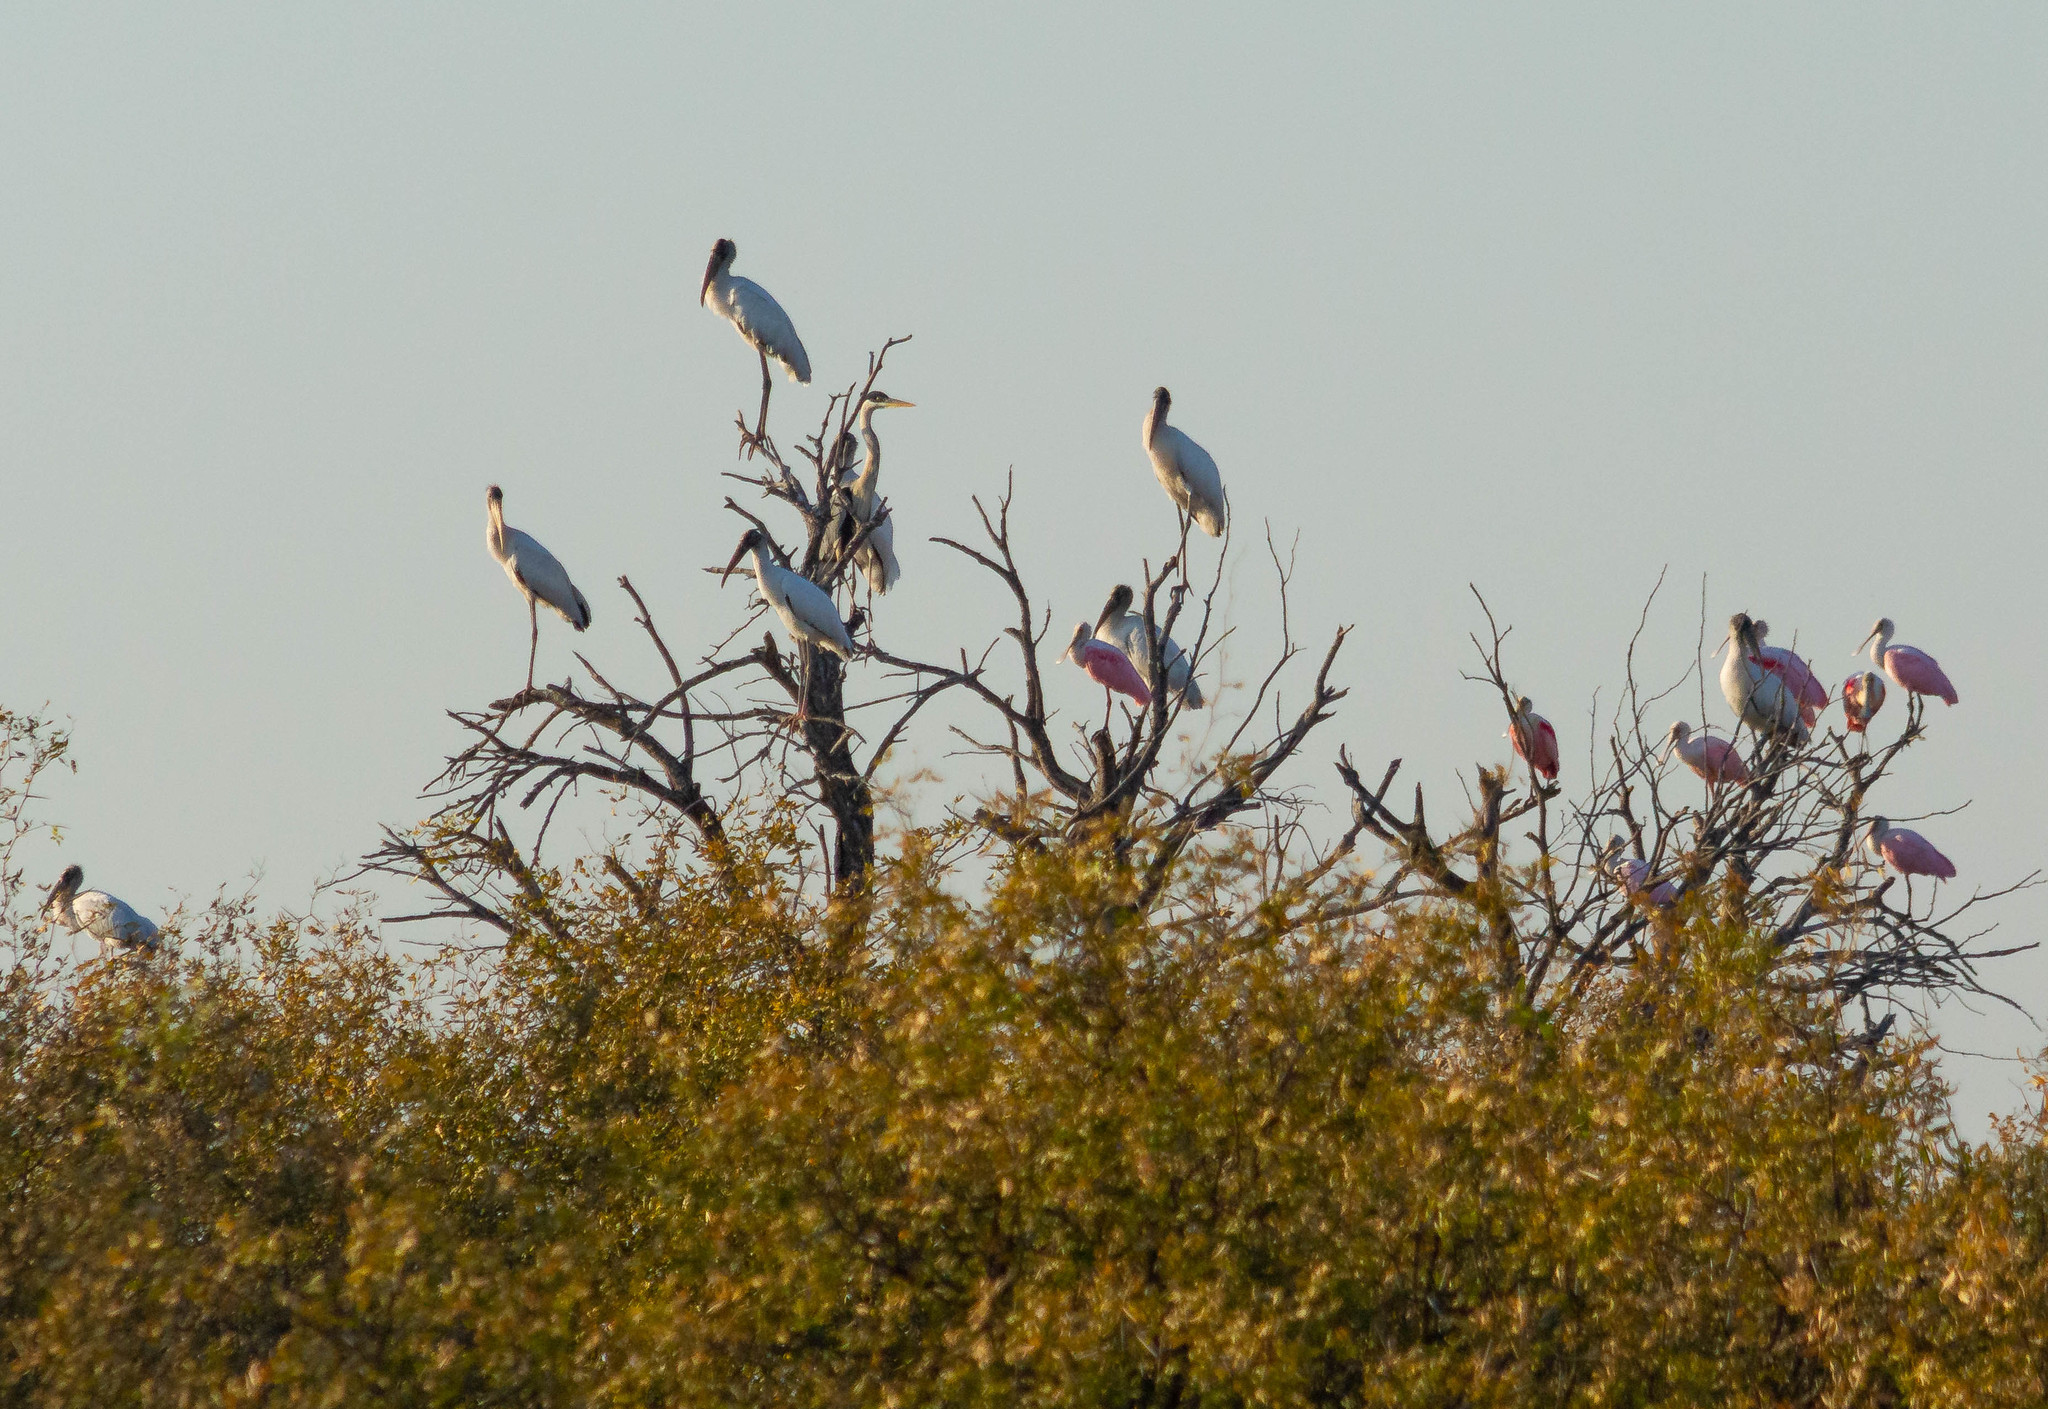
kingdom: Animalia
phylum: Chordata
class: Aves
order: Ciconiiformes
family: Ciconiidae
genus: Mycteria
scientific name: Mycteria americana
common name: Wood stork
